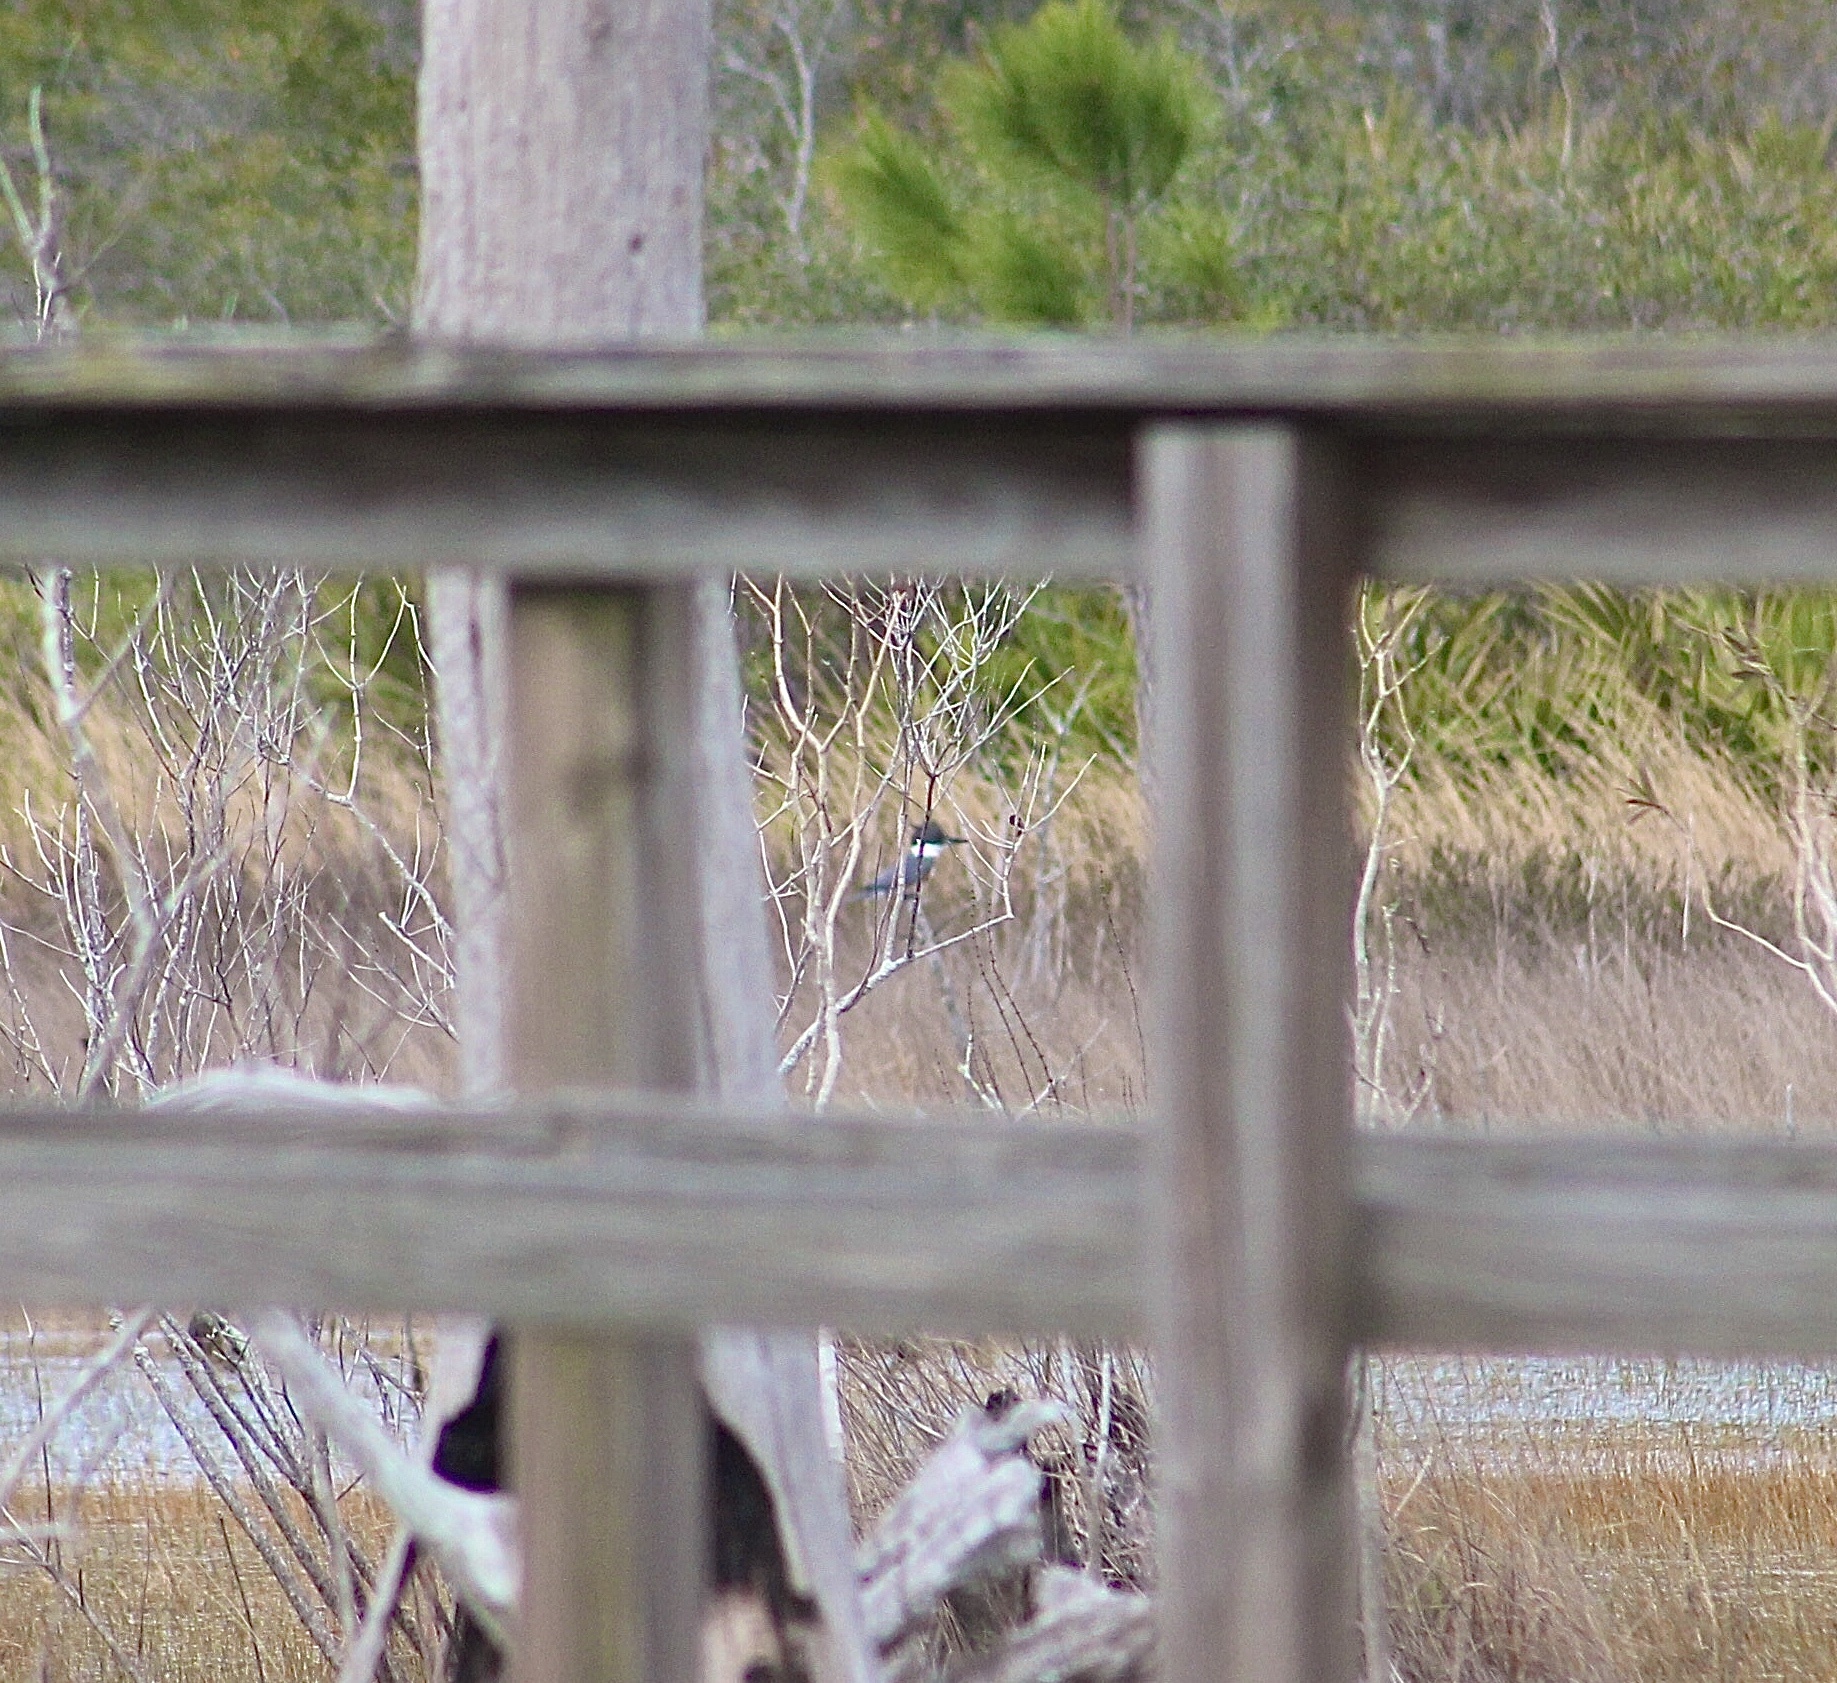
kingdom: Animalia
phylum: Chordata
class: Aves
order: Coraciiformes
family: Alcedinidae
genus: Megaceryle
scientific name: Megaceryle alcyon
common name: Belted kingfisher
